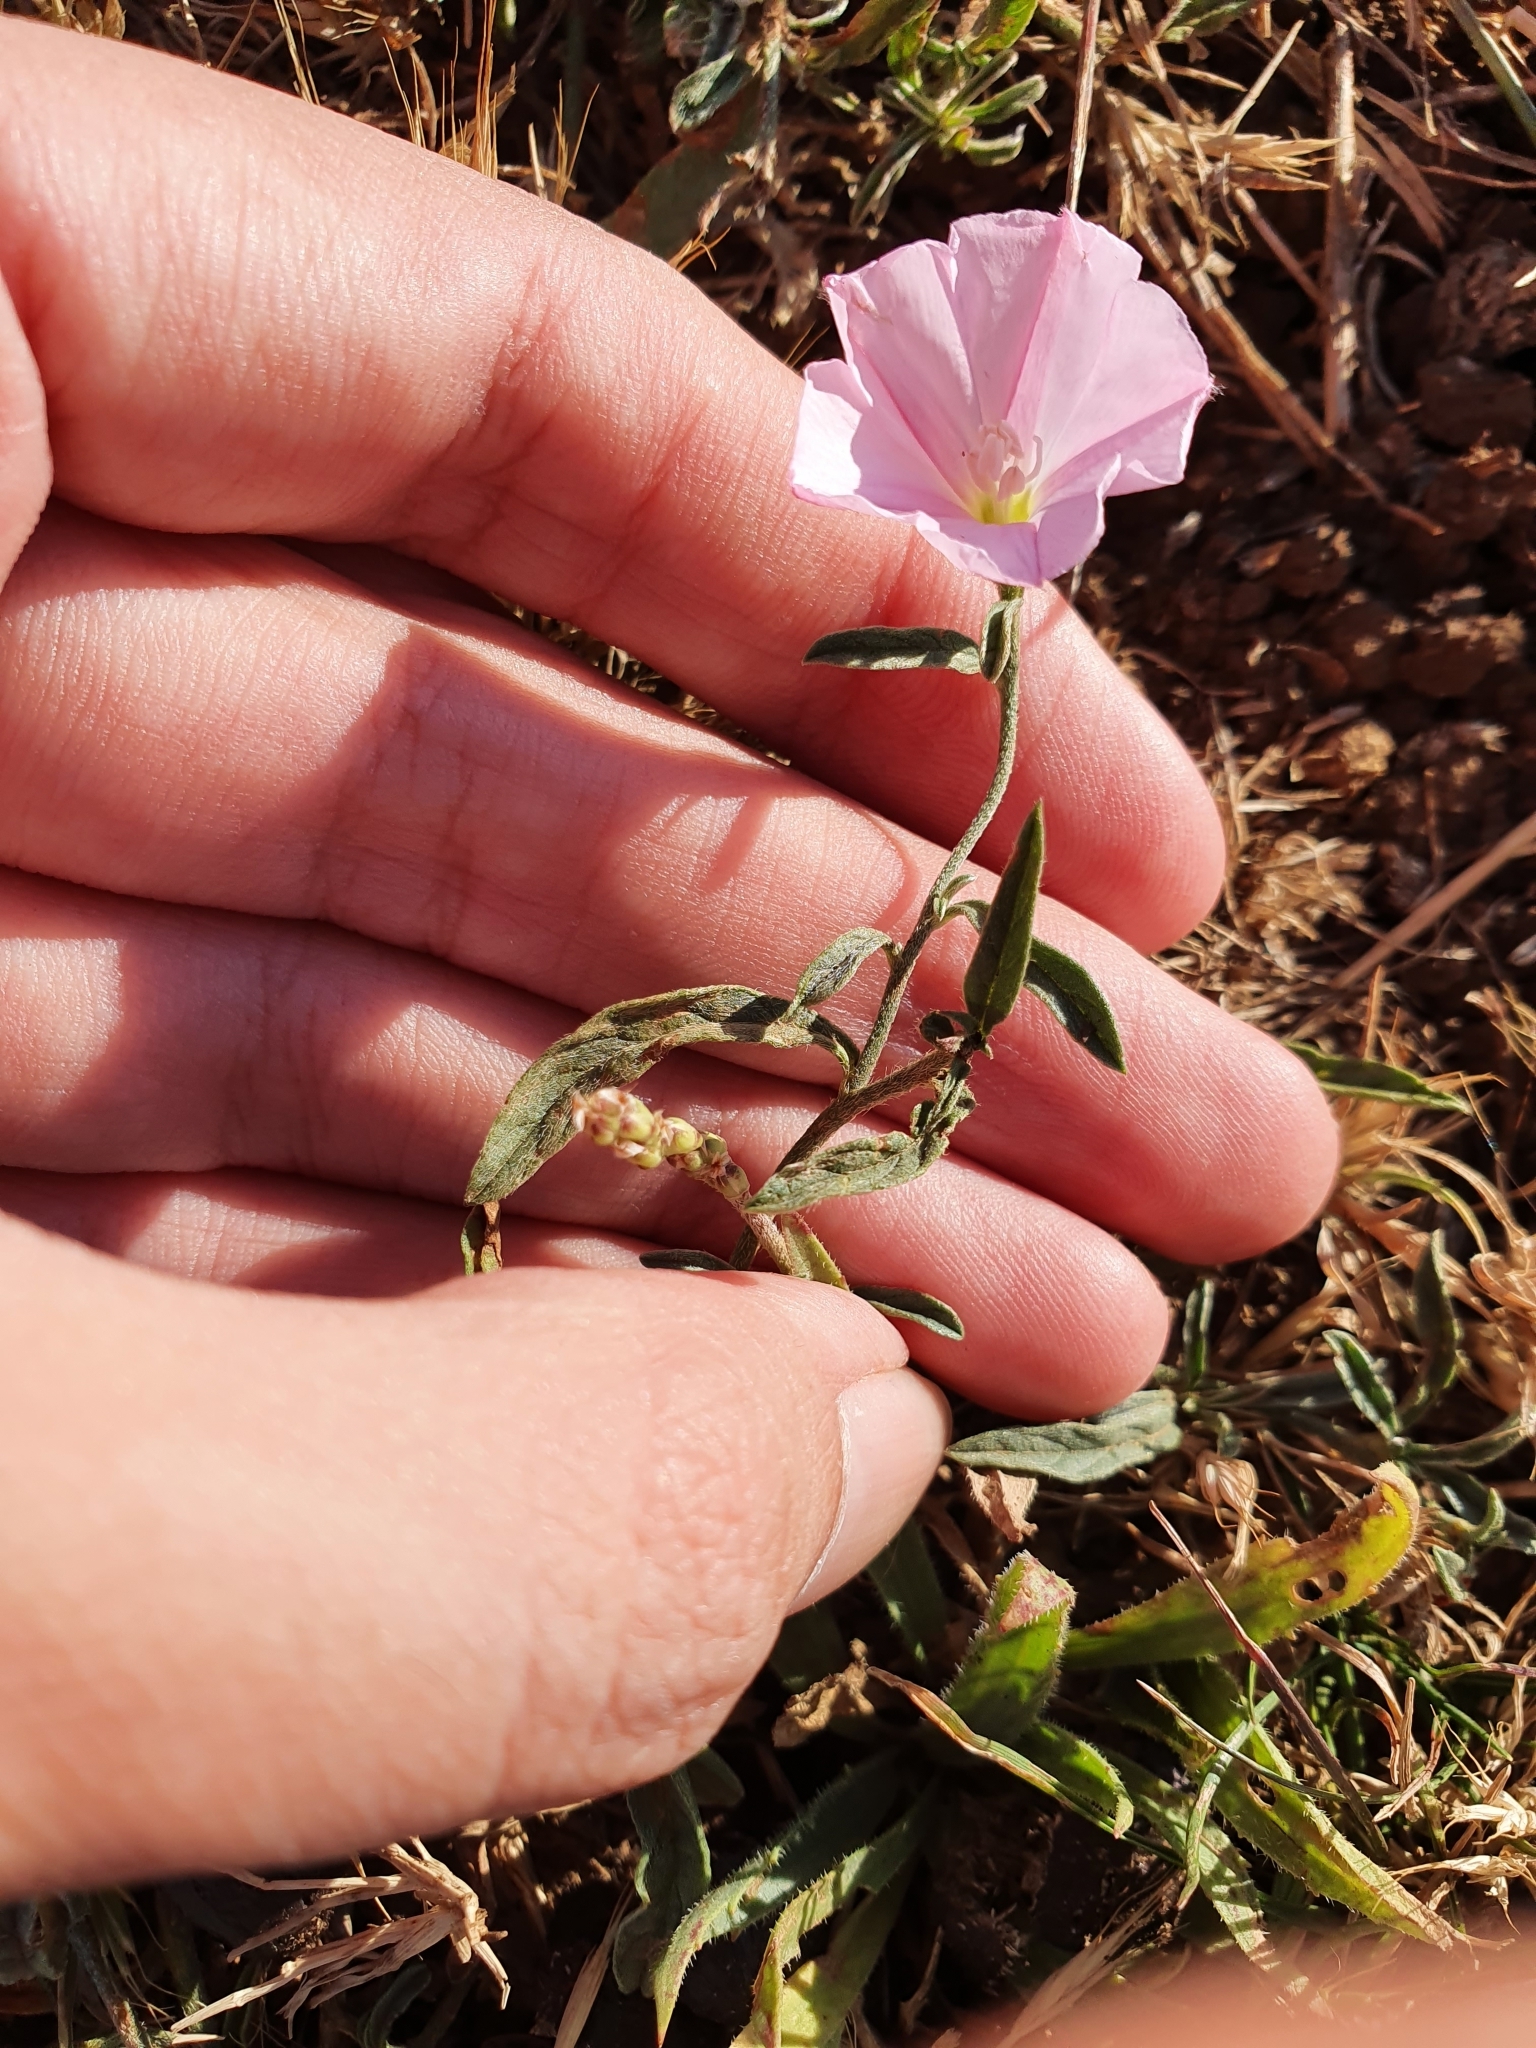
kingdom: Plantae
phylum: Tracheophyta
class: Magnoliopsida
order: Solanales
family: Convolvulaceae
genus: Convolvulus
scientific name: Convolvulus cantabrica
